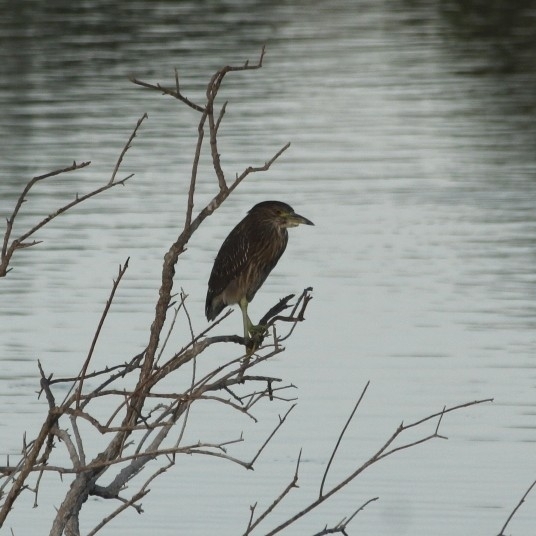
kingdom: Animalia
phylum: Chordata
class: Aves
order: Pelecaniformes
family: Ardeidae
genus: Nycticorax
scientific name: Nycticorax nycticorax
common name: Black-crowned night heron
